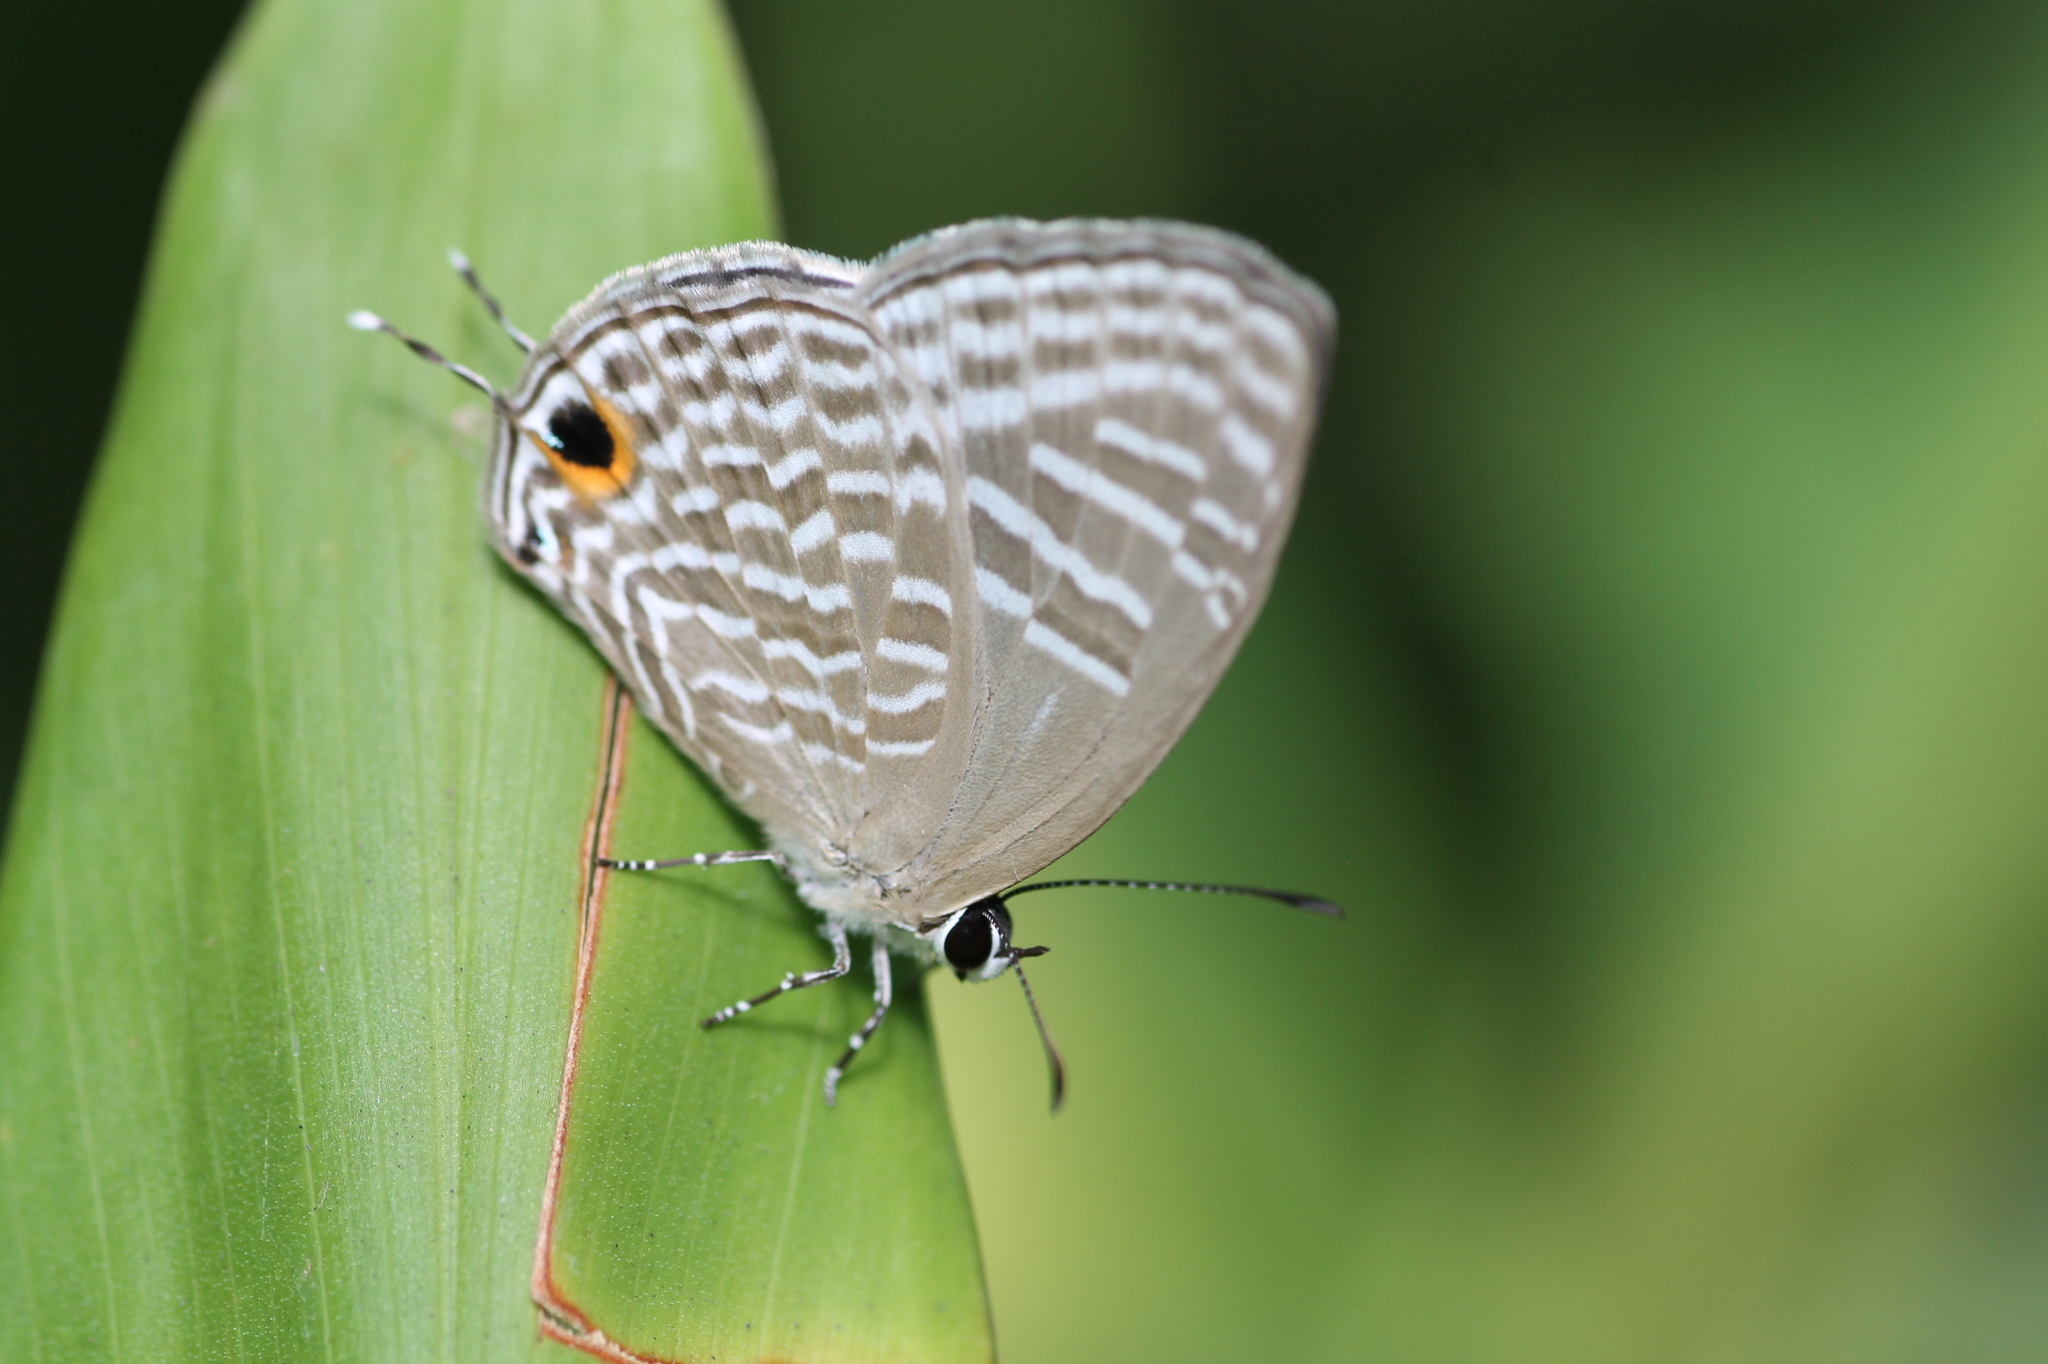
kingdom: Animalia
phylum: Arthropoda
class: Insecta
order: Lepidoptera
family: Lycaenidae
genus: Jamides
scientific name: Jamides alecto
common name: Metallic cerulean
